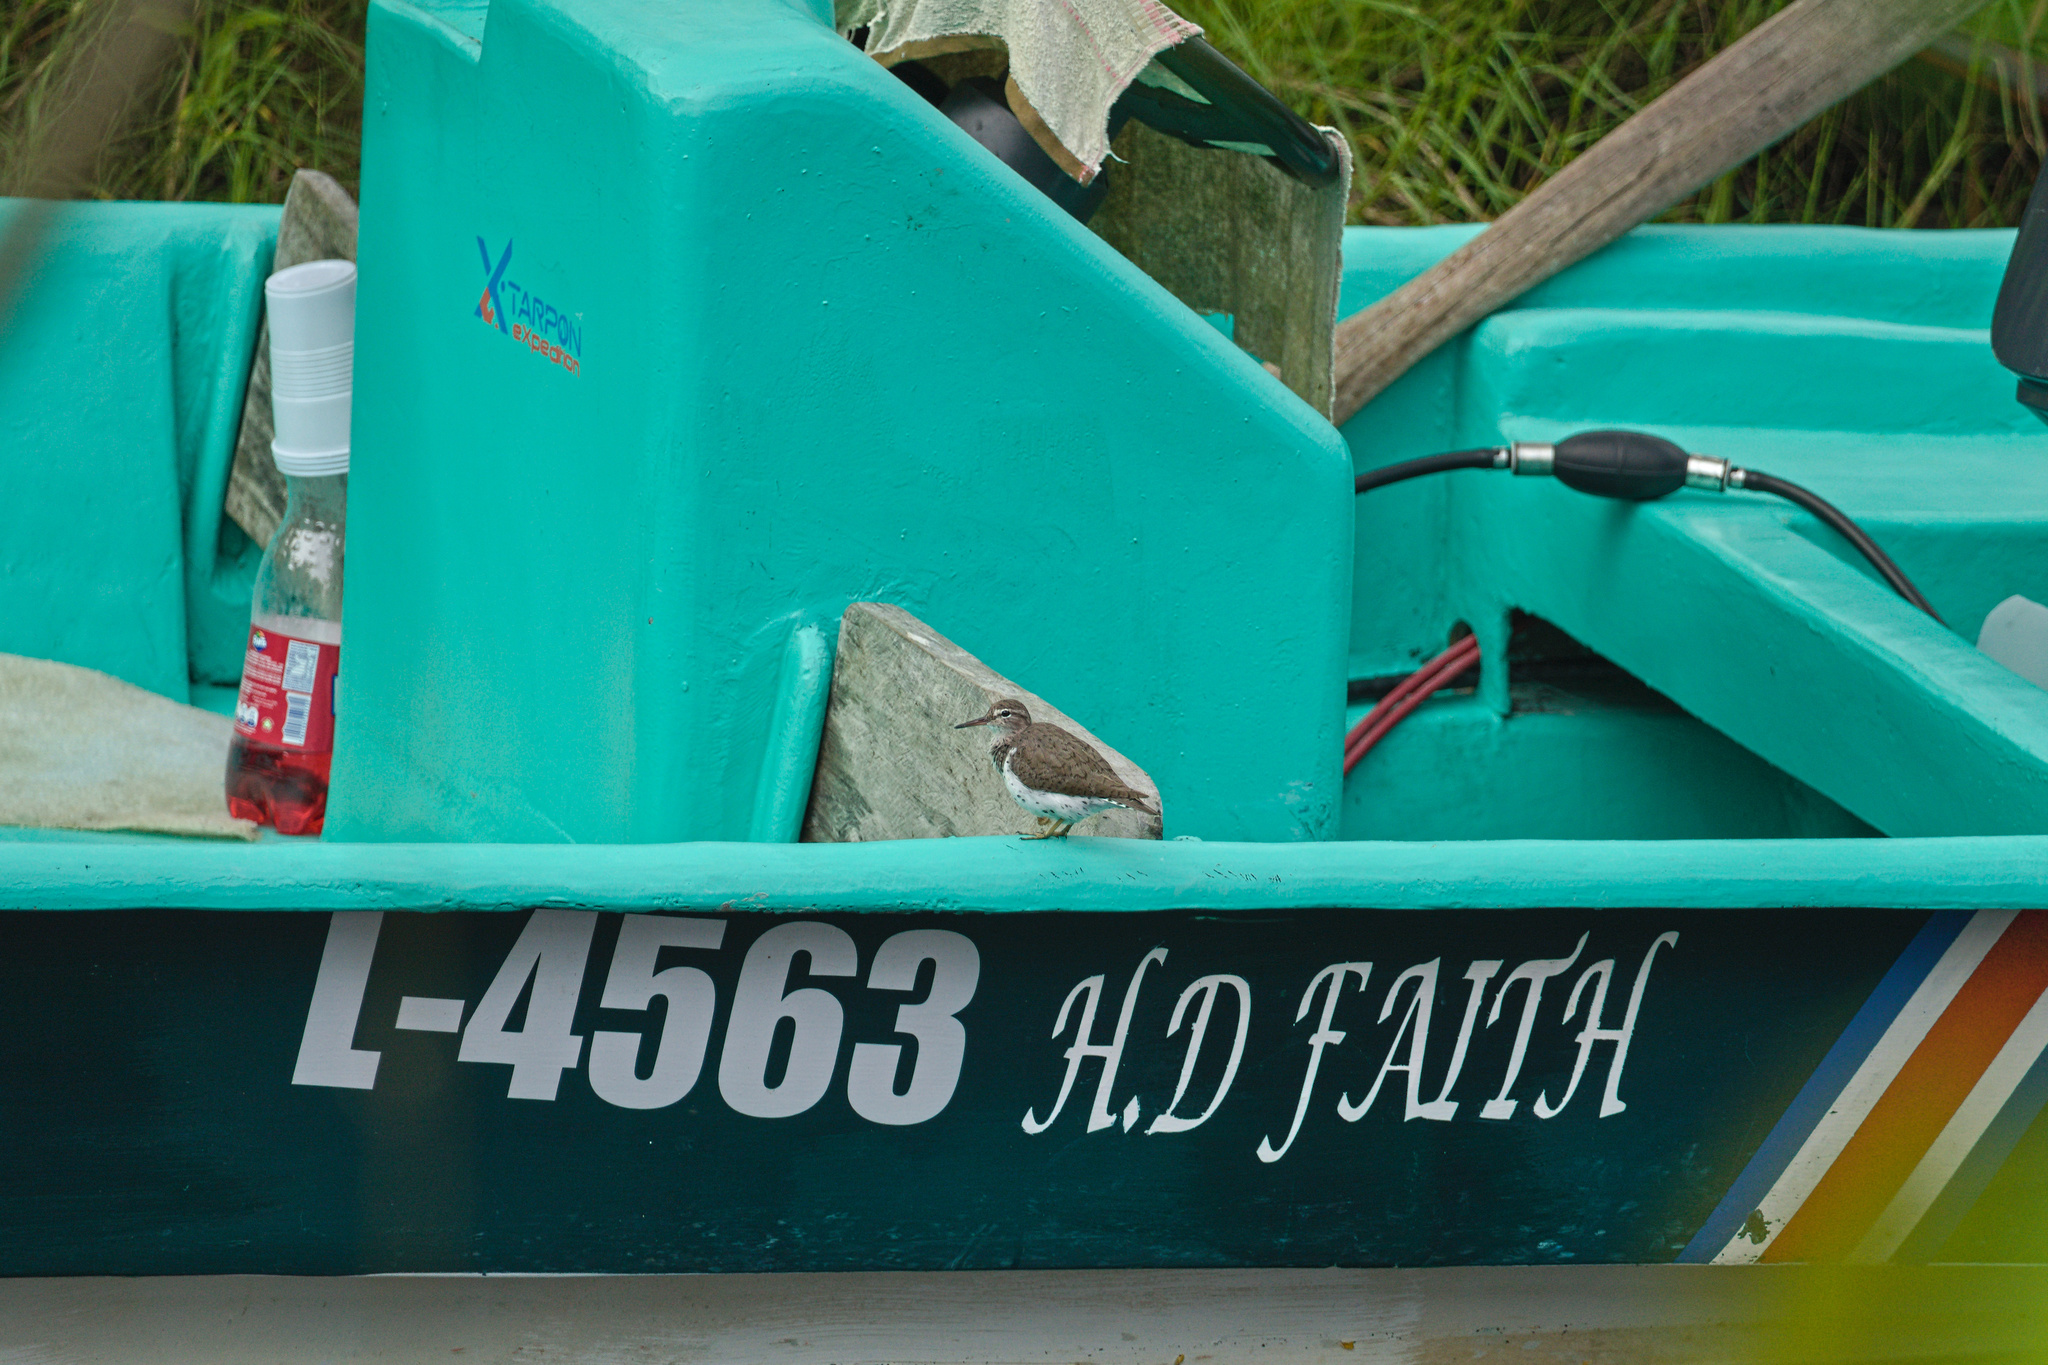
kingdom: Animalia
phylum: Chordata
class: Aves
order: Charadriiformes
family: Scolopacidae
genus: Actitis
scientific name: Actitis macularius
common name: Spotted sandpiper
